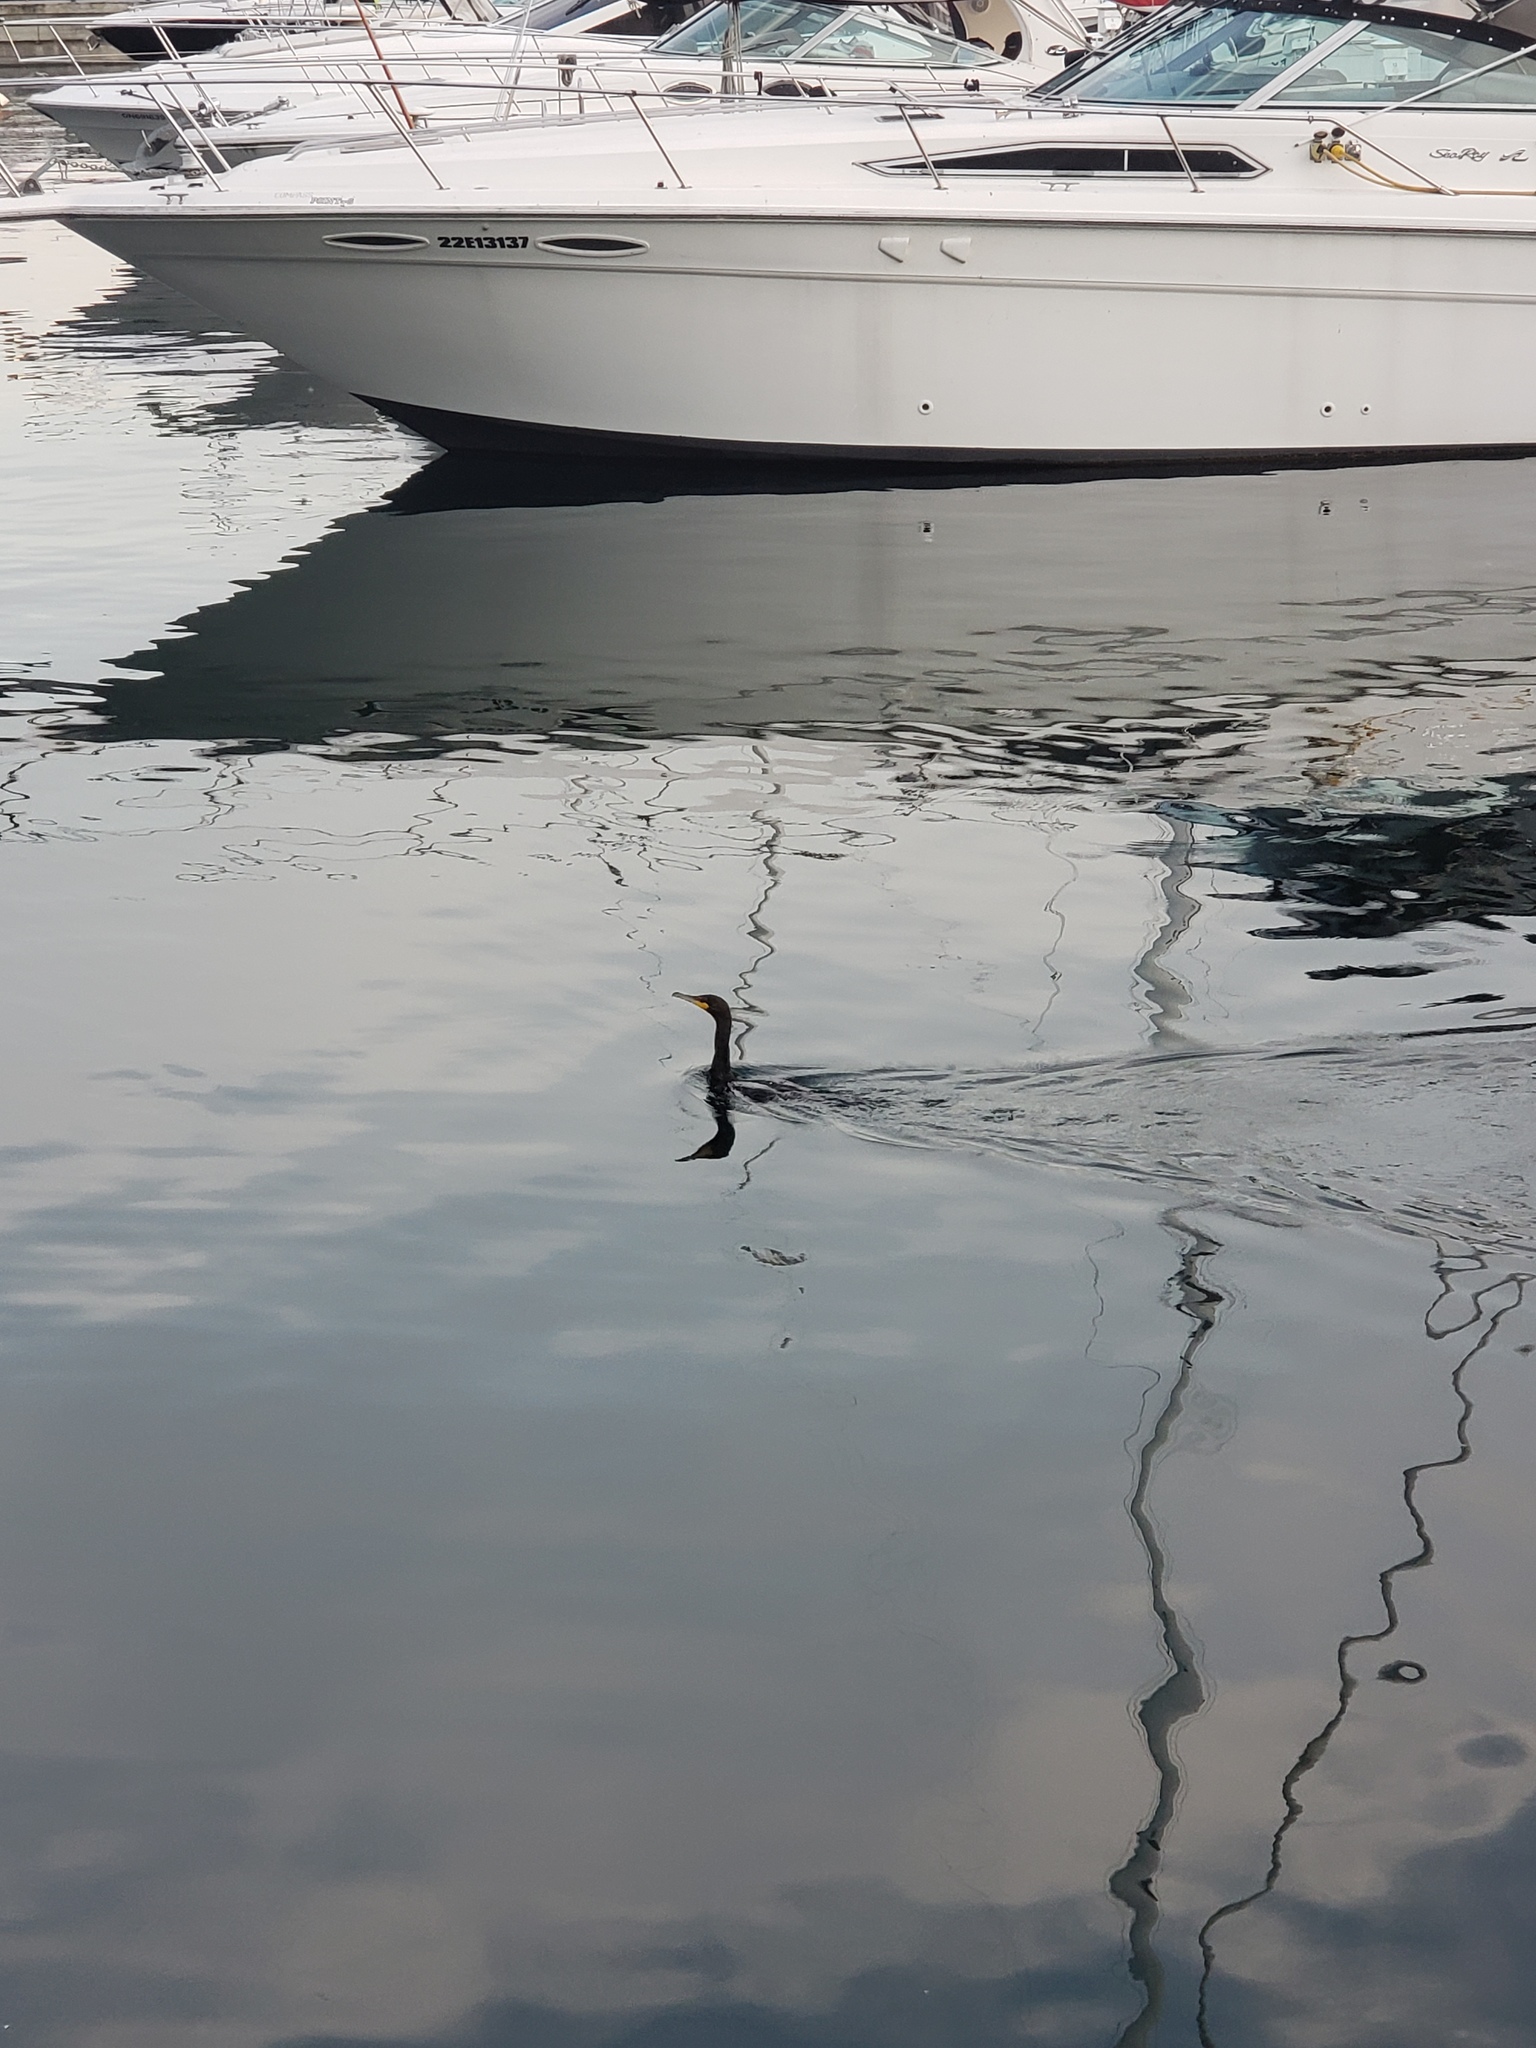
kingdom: Animalia
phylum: Chordata
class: Aves
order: Suliformes
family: Phalacrocoracidae
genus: Phalacrocorax
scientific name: Phalacrocorax auritus
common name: Double-crested cormorant
